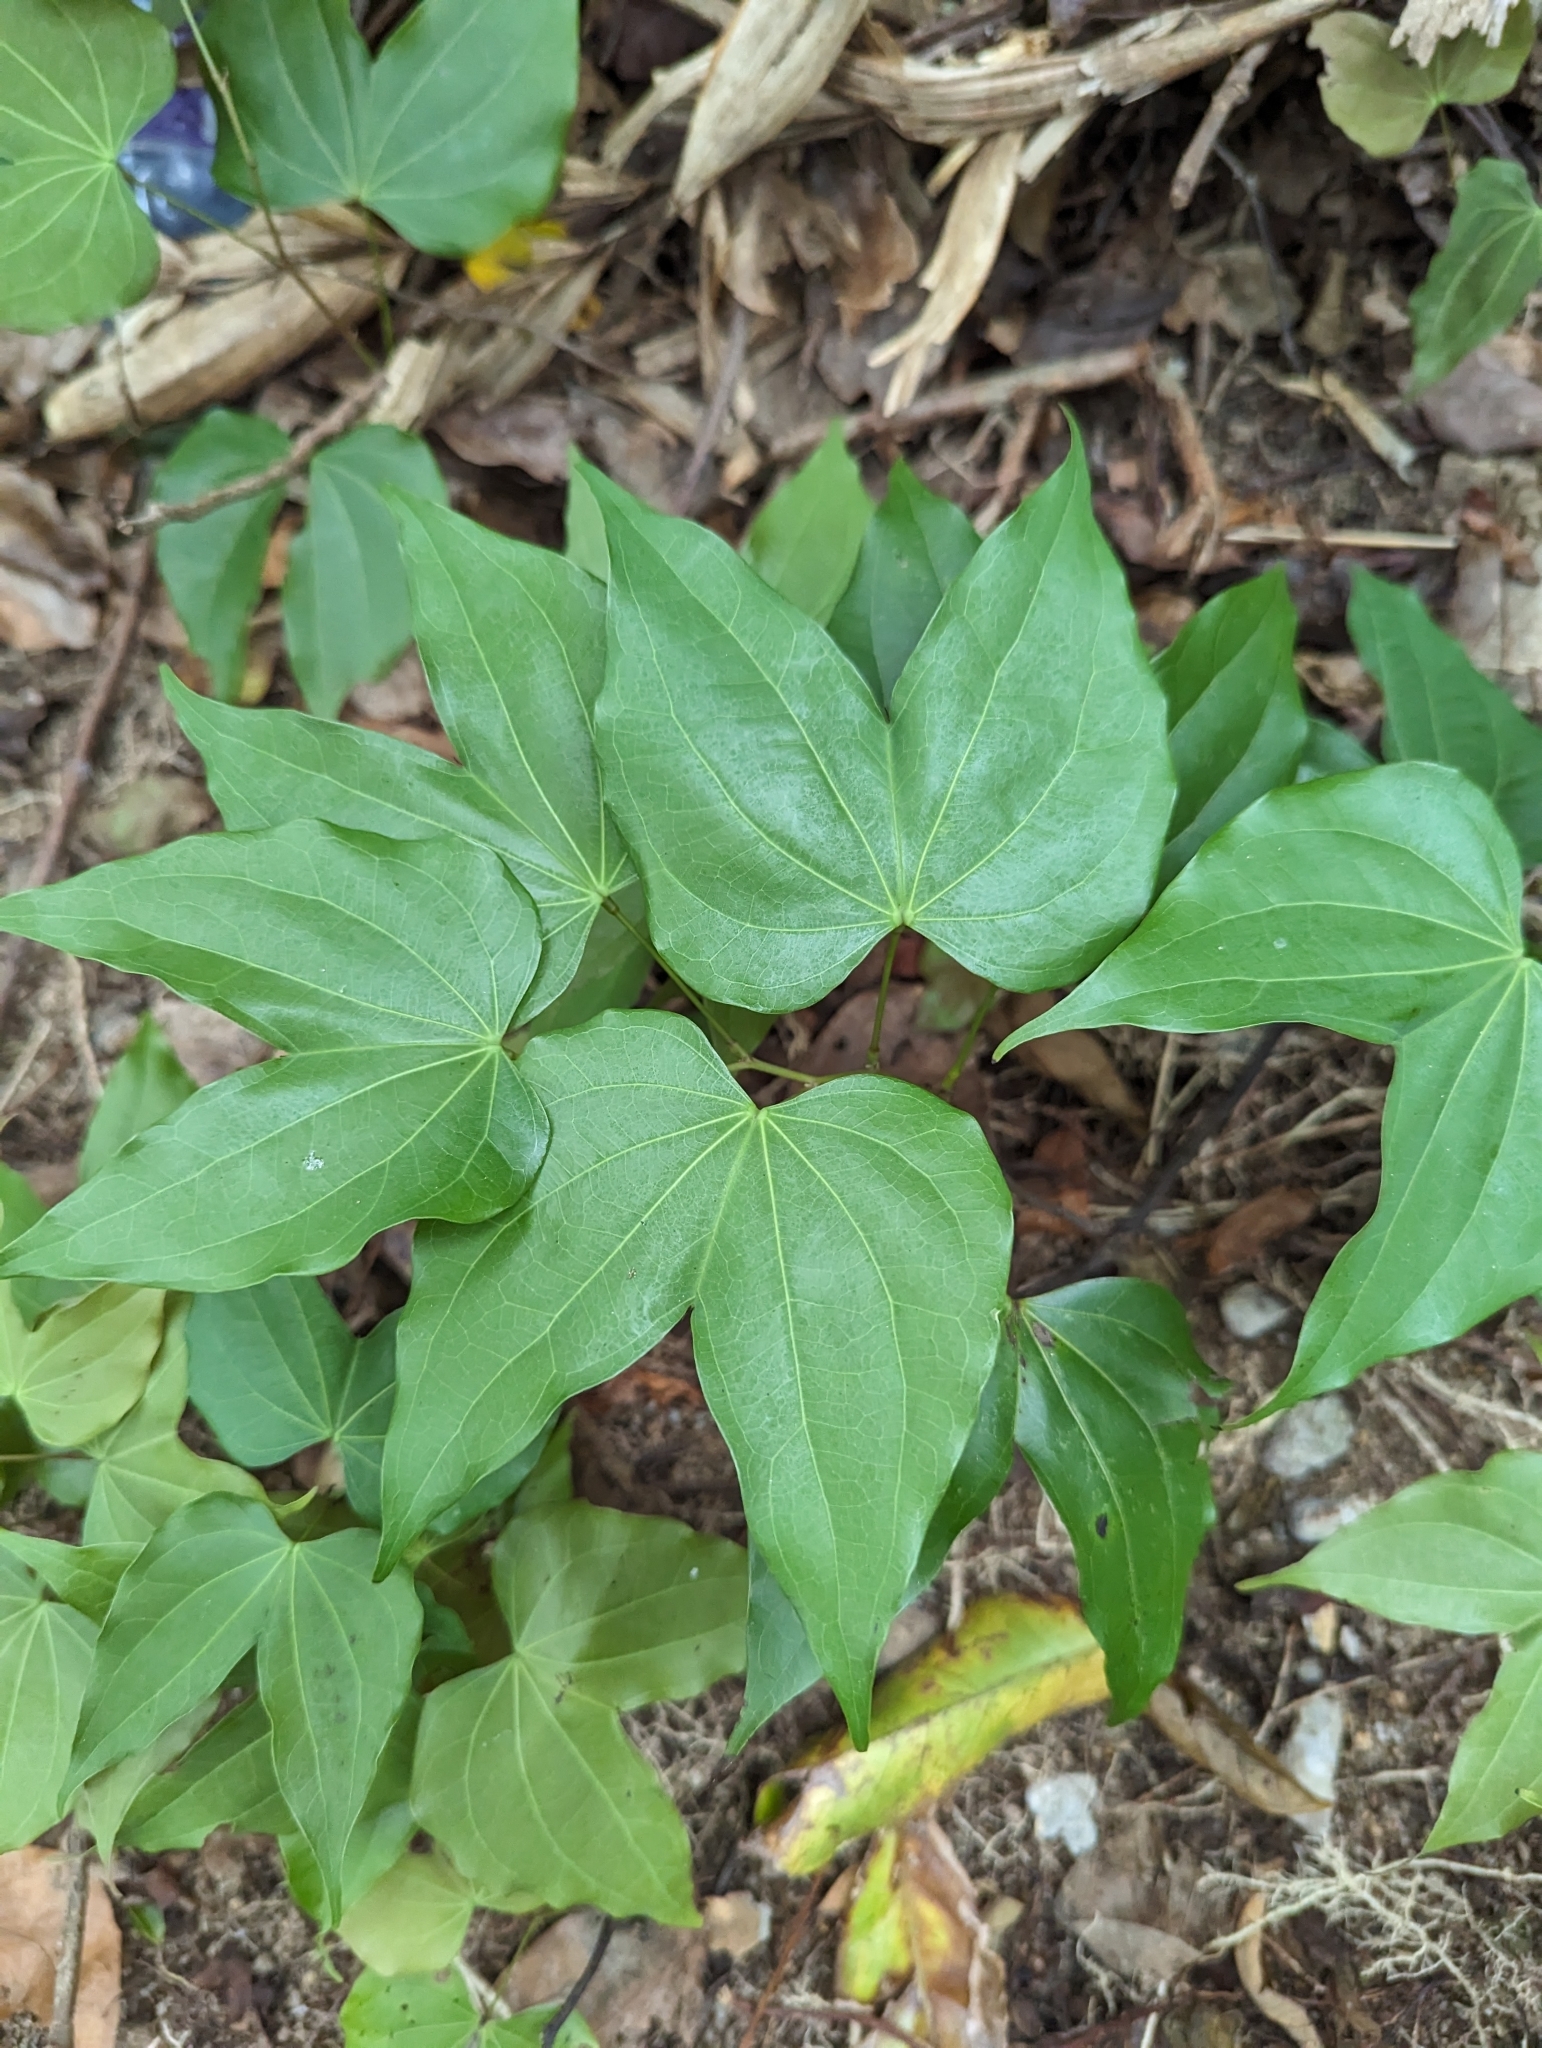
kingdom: Plantae
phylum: Tracheophyta
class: Magnoliopsida
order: Fabales
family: Fabaceae
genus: Phanera
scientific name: Phanera championii
